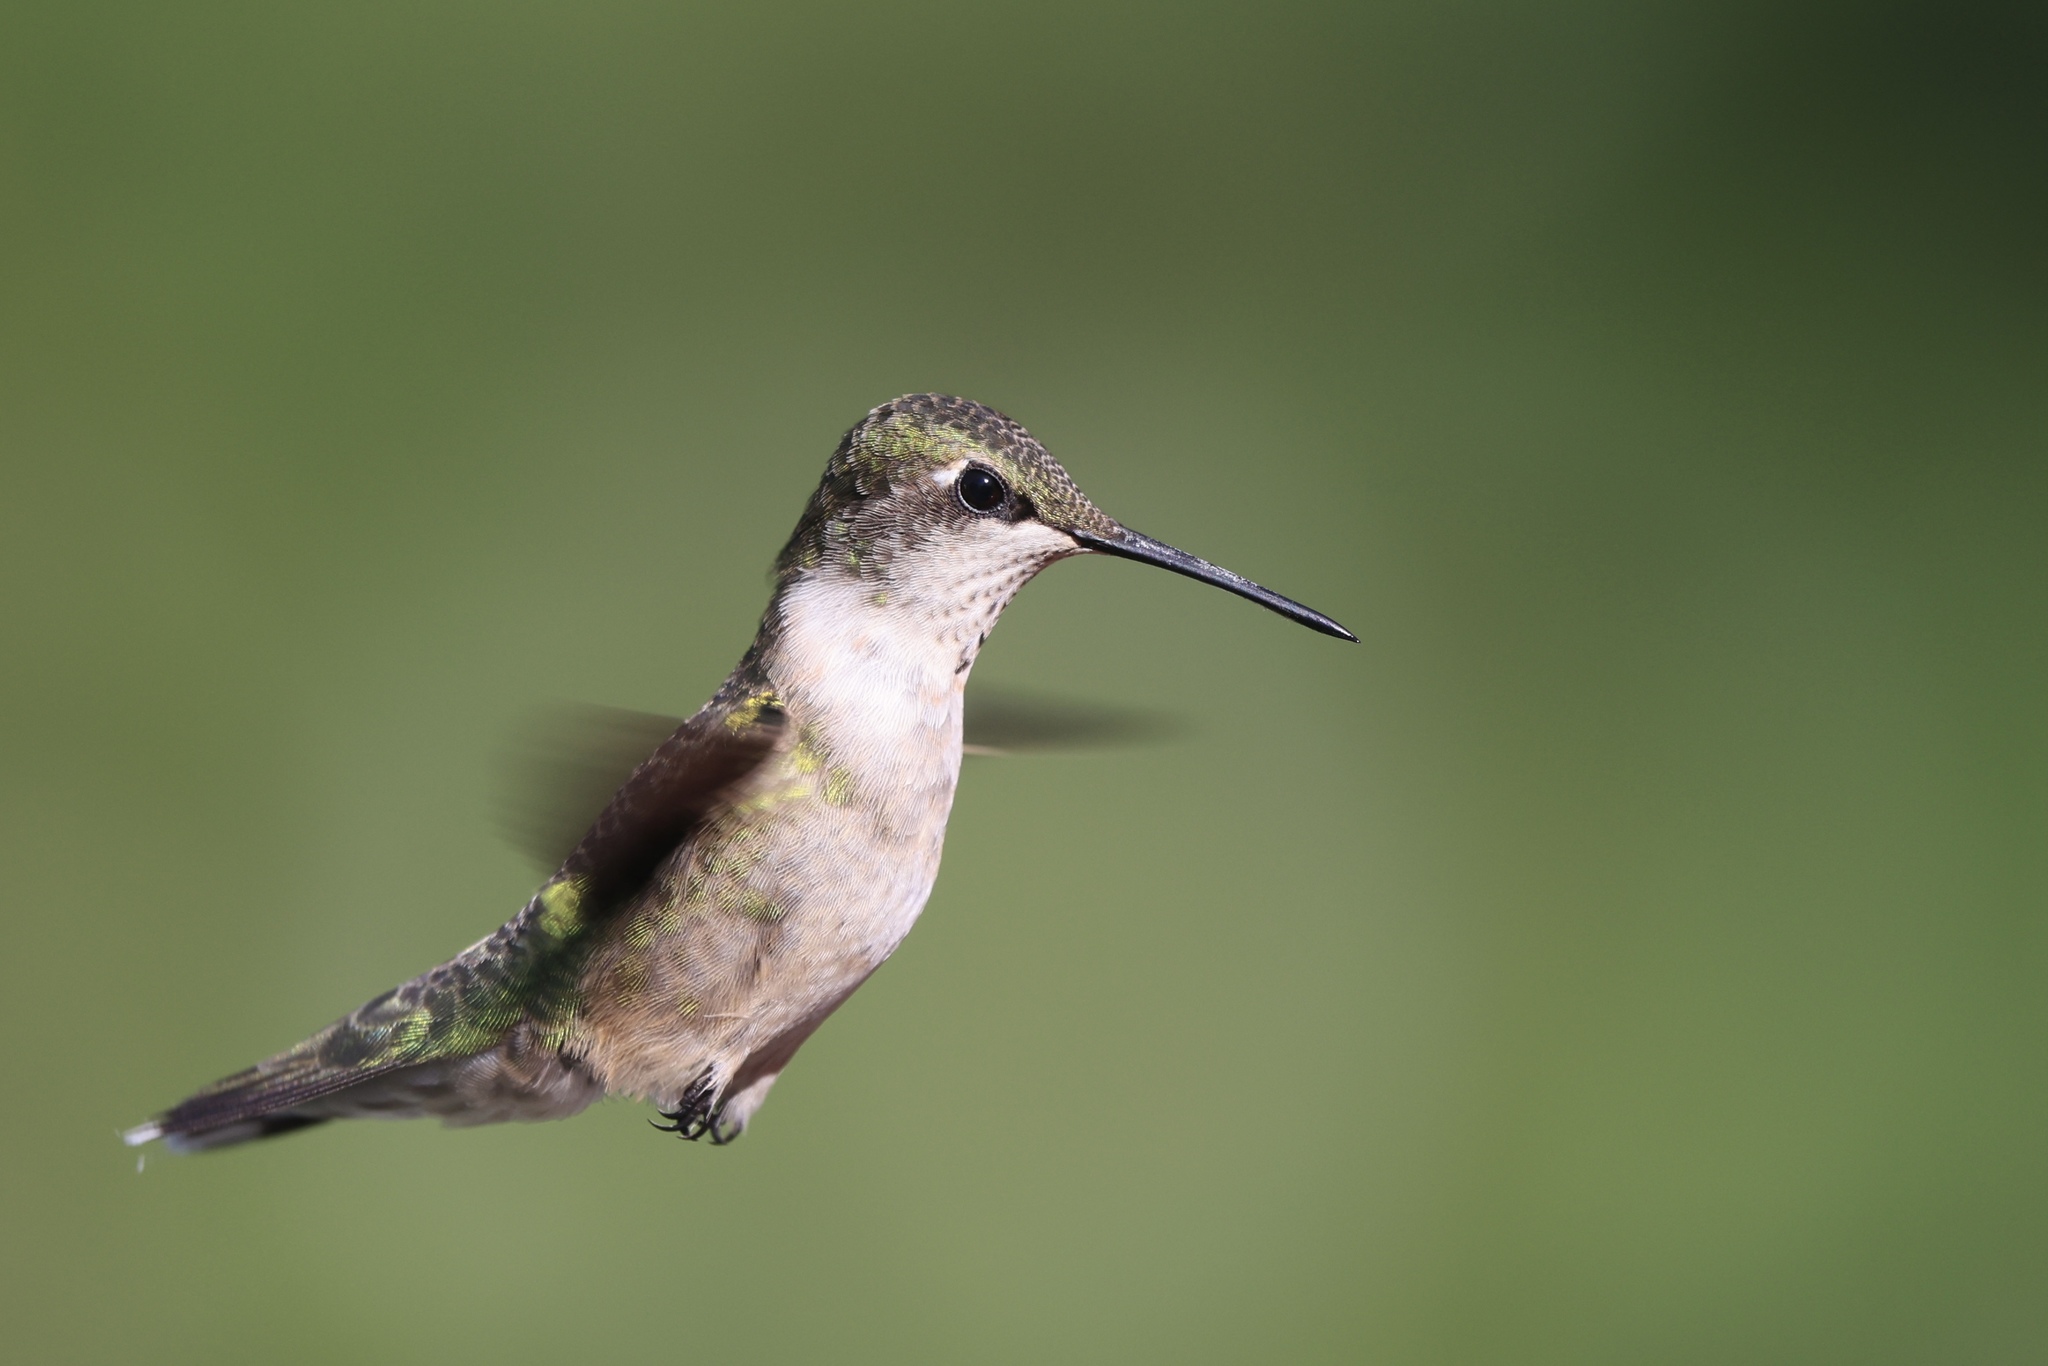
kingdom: Animalia
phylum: Chordata
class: Aves
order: Apodiformes
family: Trochilidae
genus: Archilochus
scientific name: Archilochus colubris
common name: Ruby-throated hummingbird
